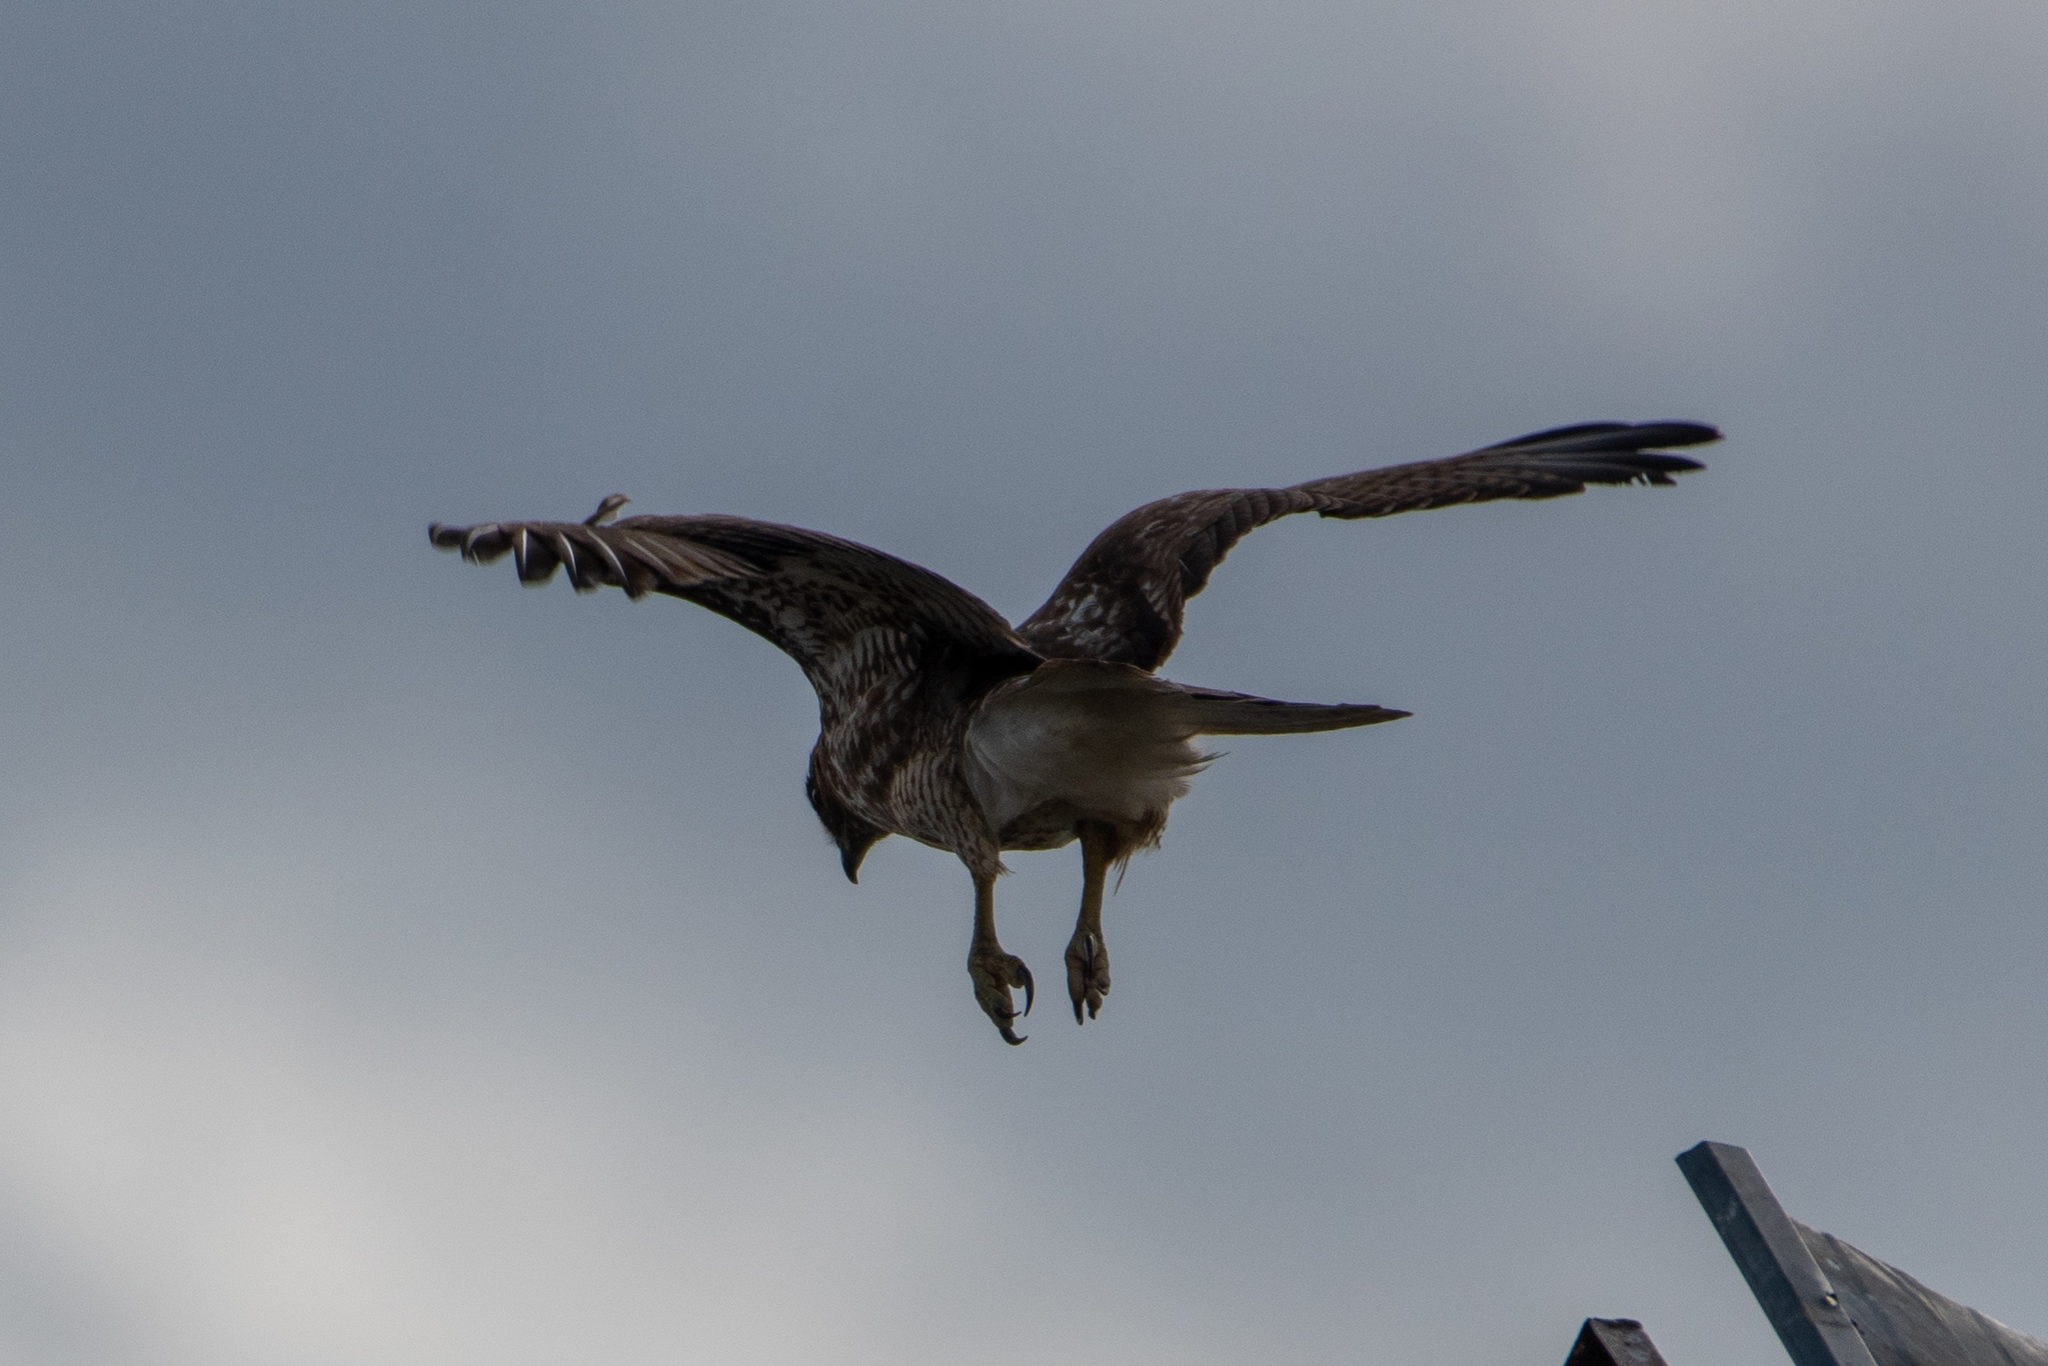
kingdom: Animalia
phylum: Chordata
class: Aves
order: Accipitriformes
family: Accipitridae
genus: Buteo
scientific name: Buteo jamaicensis
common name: Red-tailed hawk
